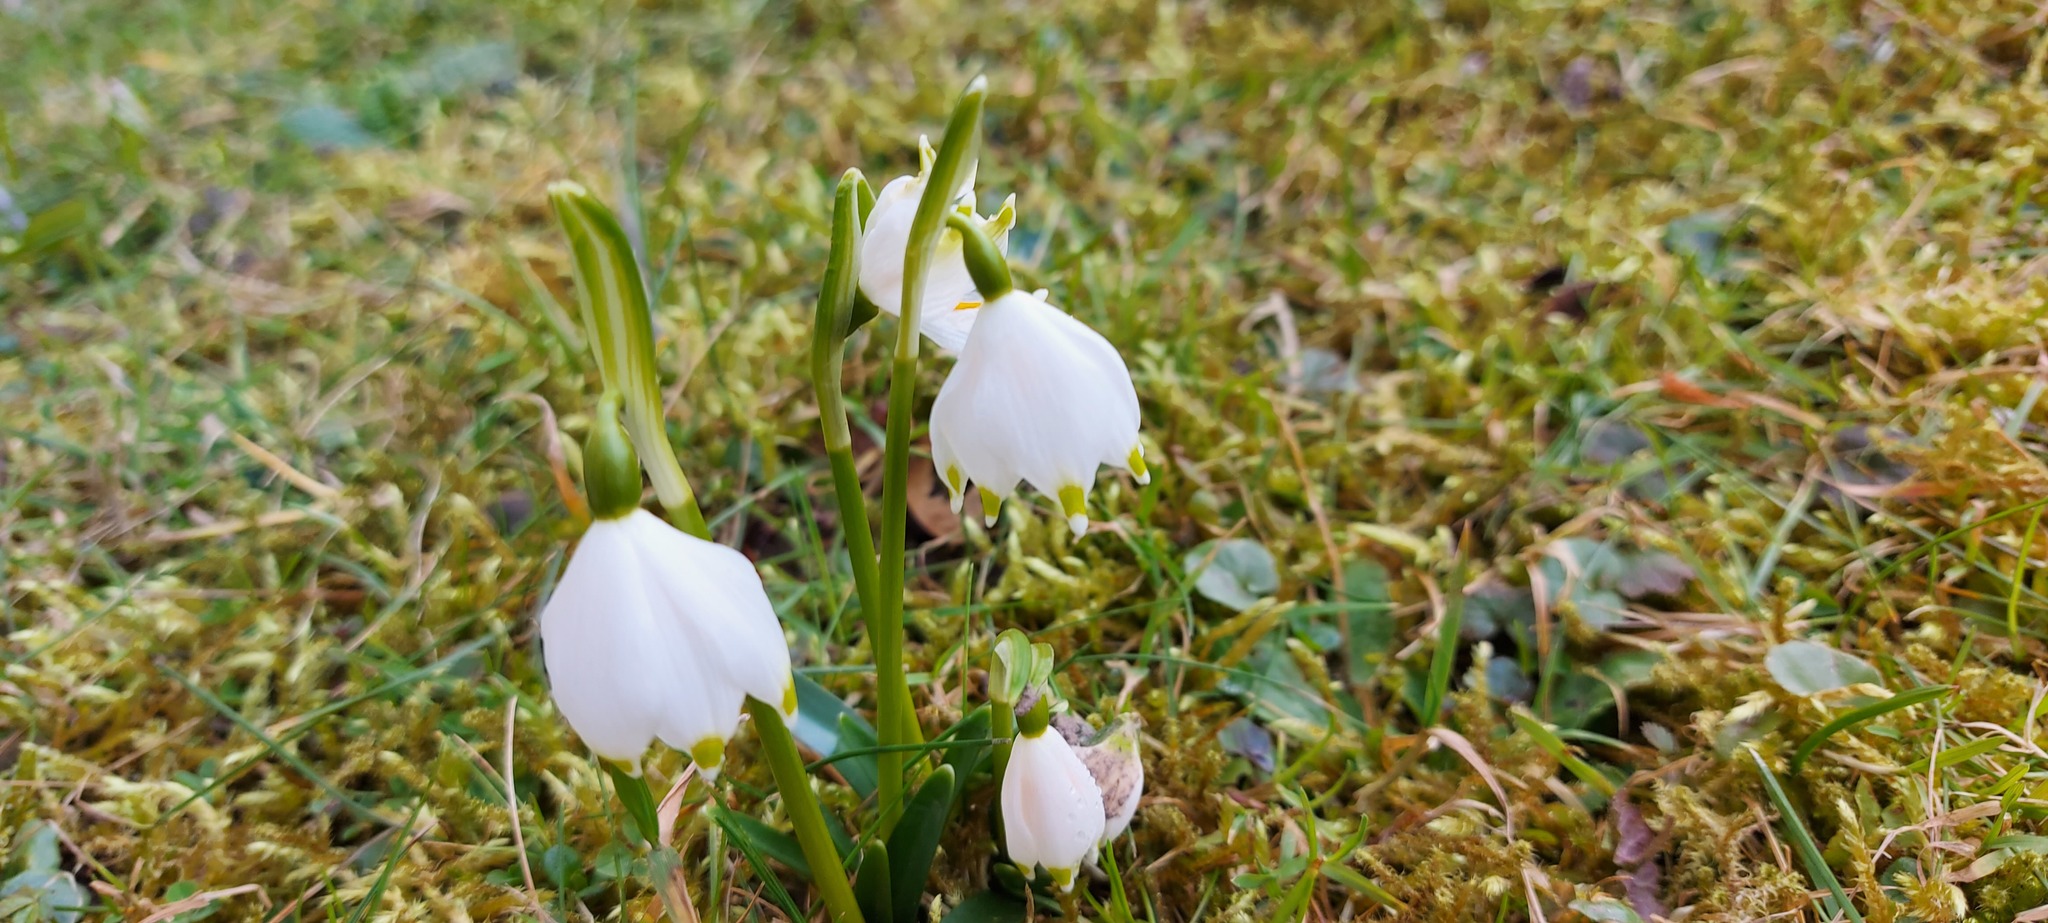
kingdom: Plantae
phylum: Tracheophyta
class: Liliopsida
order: Asparagales
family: Amaryllidaceae
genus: Leucojum
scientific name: Leucojum vernum
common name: Spring snowflake
